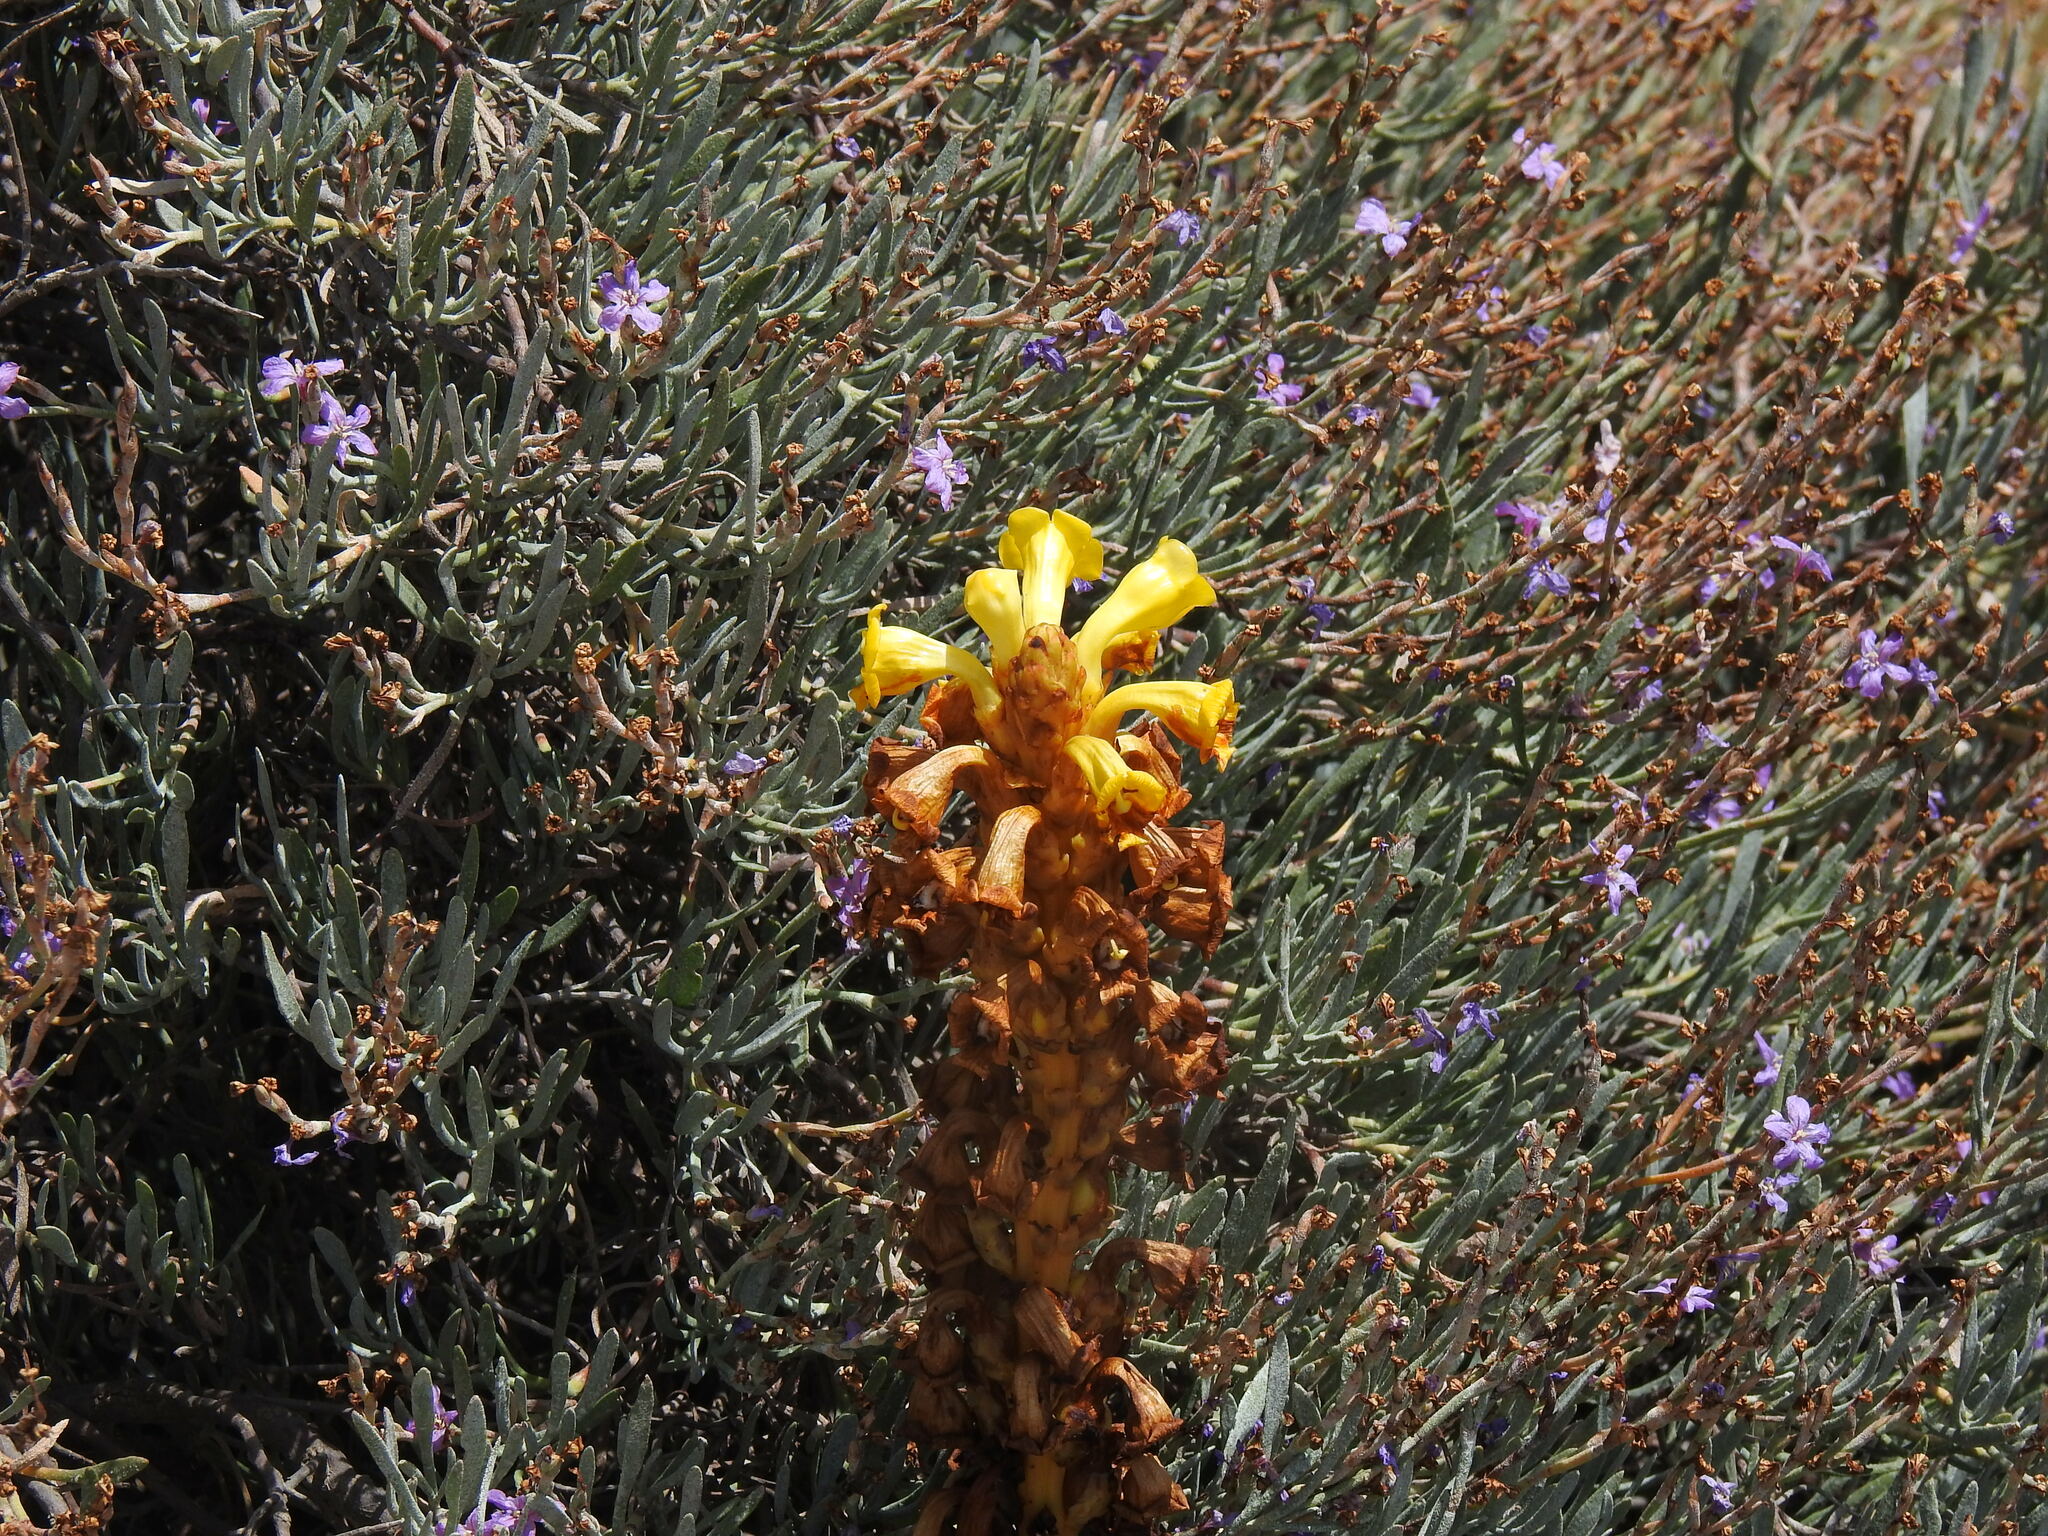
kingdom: Plantae
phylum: Tracheophyta
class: Magnoliopsida
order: Lamiales
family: Orobanchaceae
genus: Cistanche
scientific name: Cistanche phelypaea
